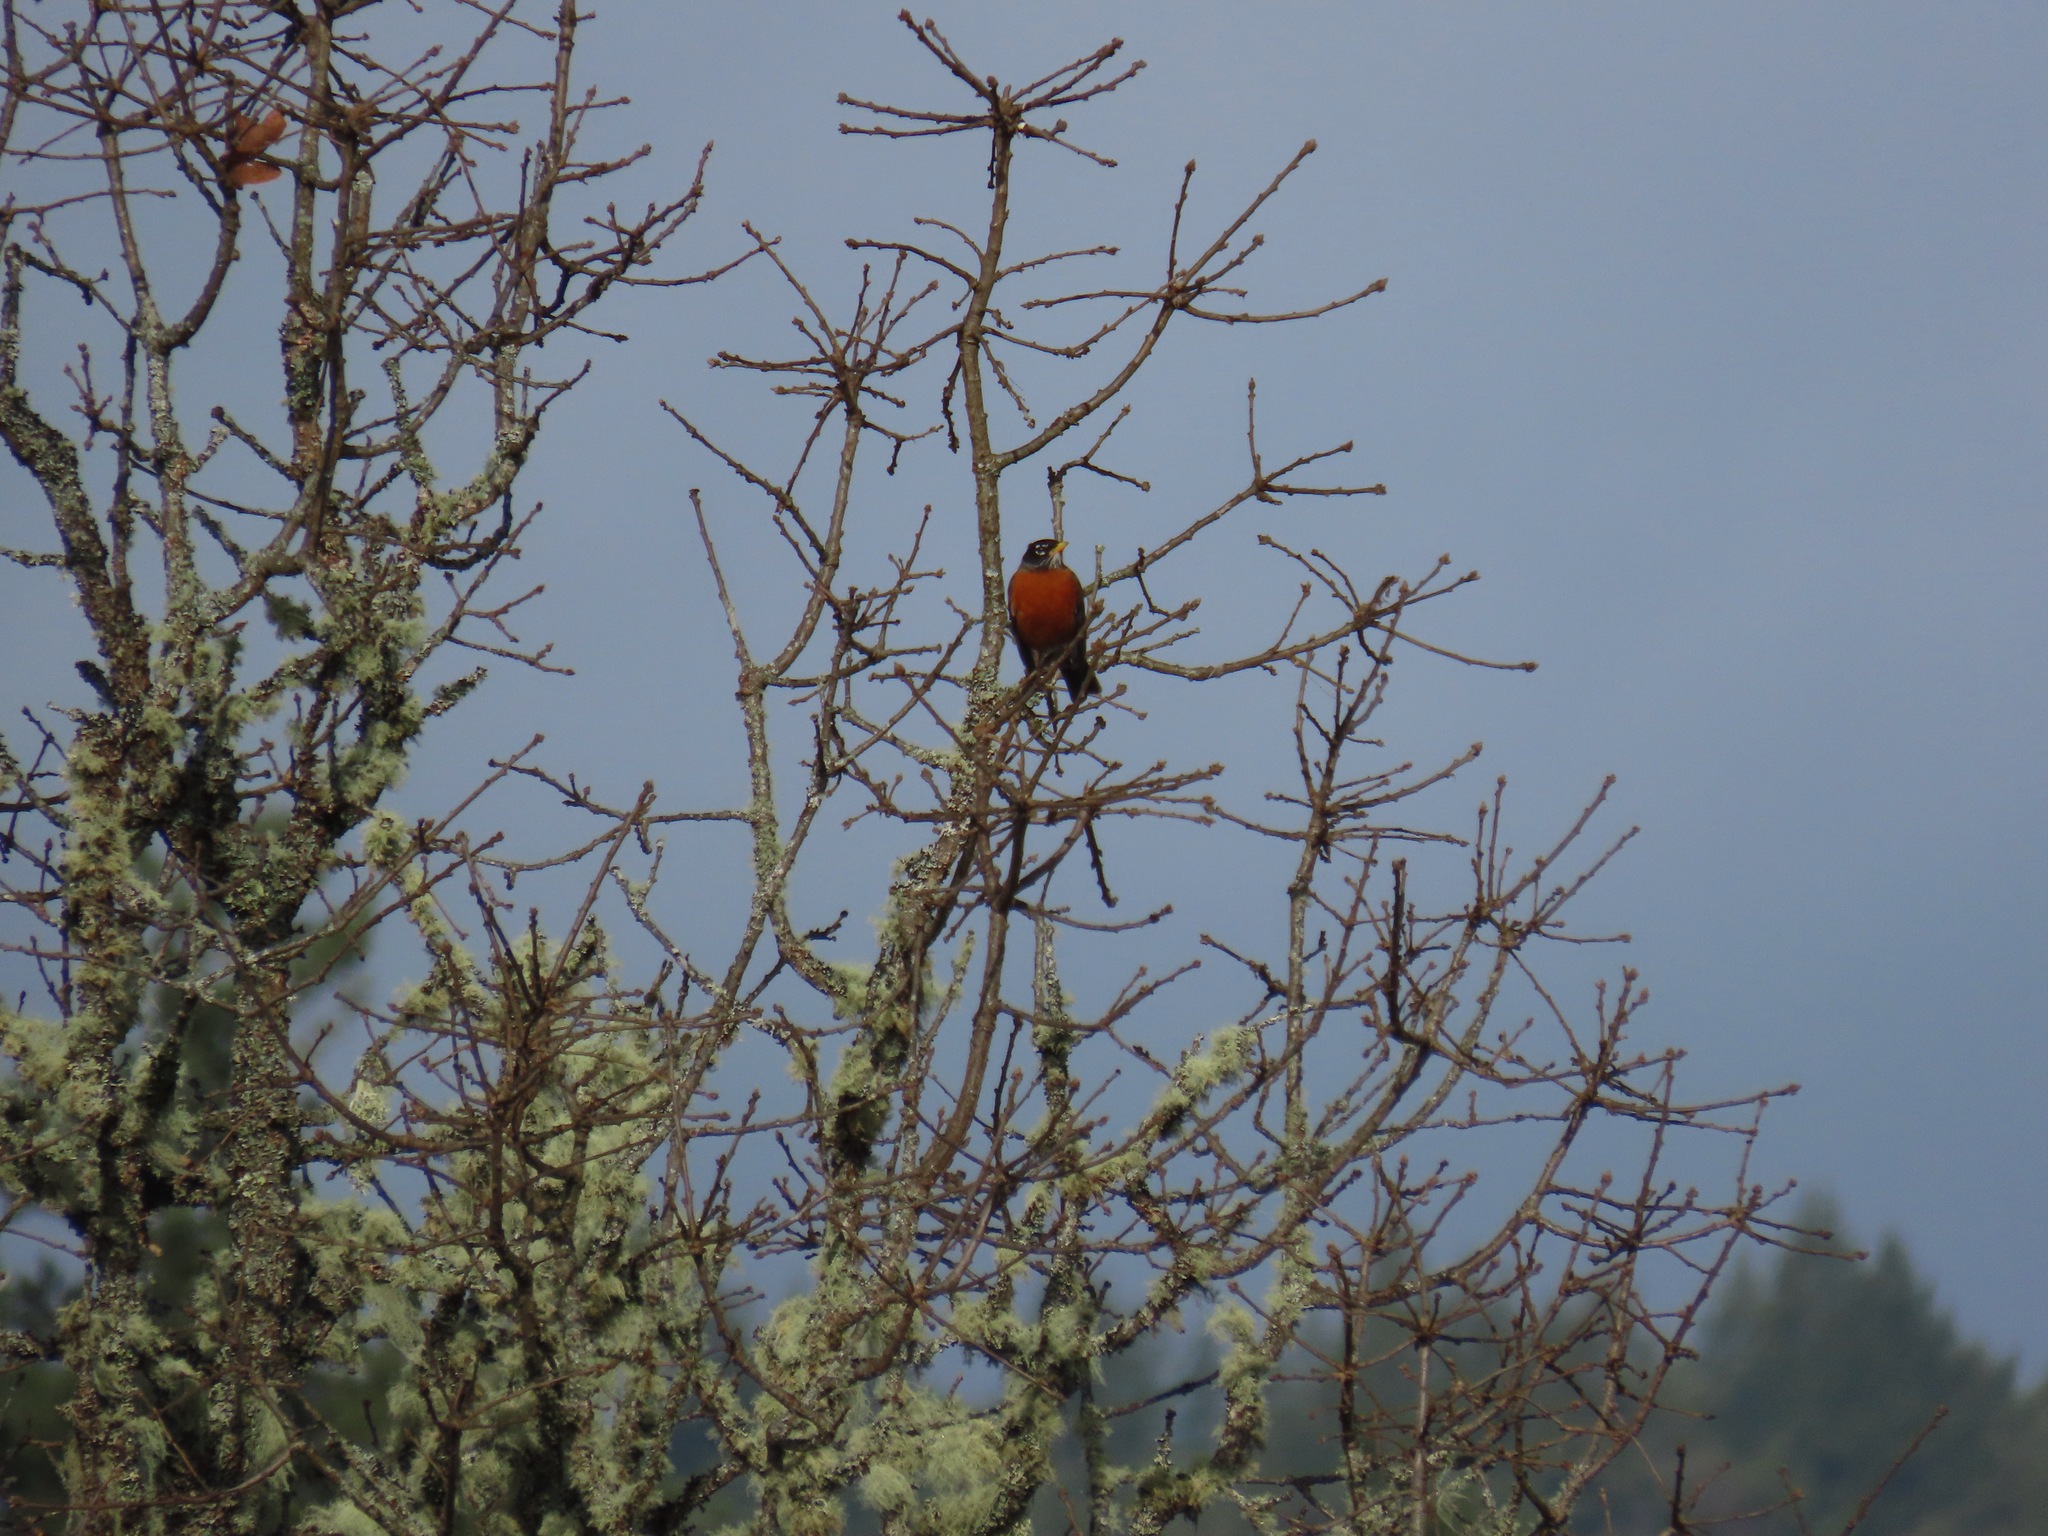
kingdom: Animalia
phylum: Chordata
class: Aves
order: Passeriformes
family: Turdidae
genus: Turdus
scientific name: Turdus migratorius
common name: American robin
